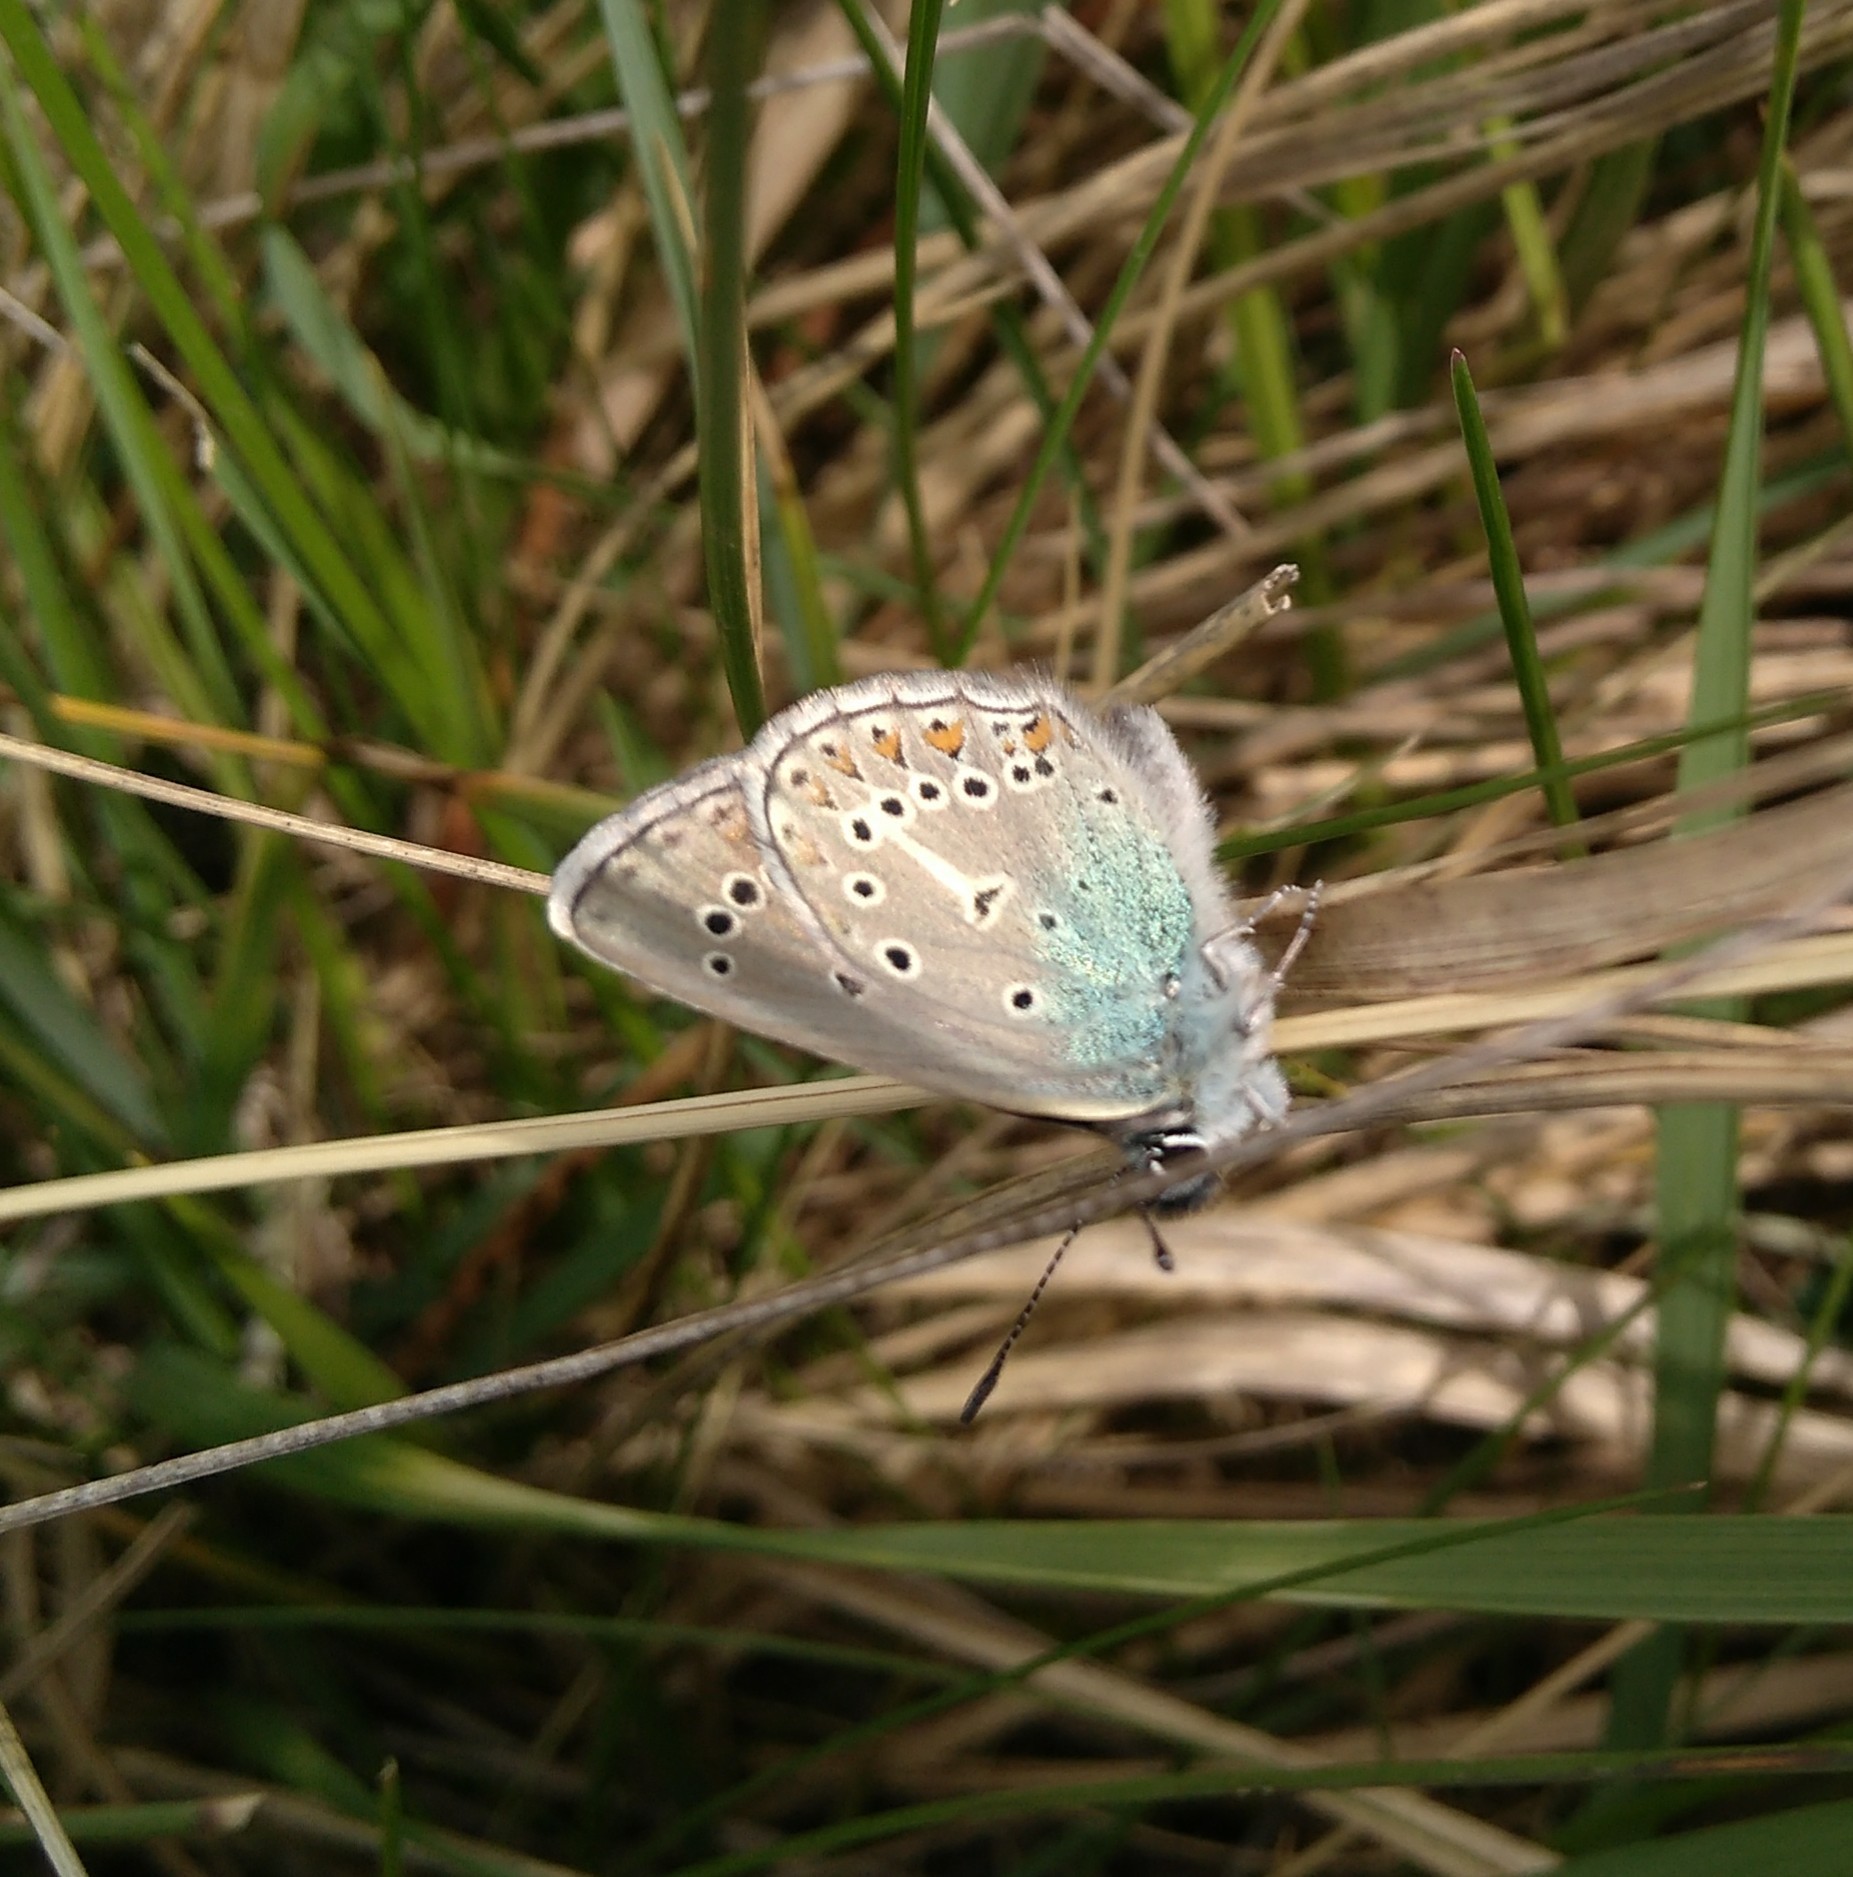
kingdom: Animalia
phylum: Arthropoda
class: Insecta
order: Lepidoptera
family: Lycaenidae
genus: Eumedonia
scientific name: Eumedonia eumedon
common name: Geranium argus
